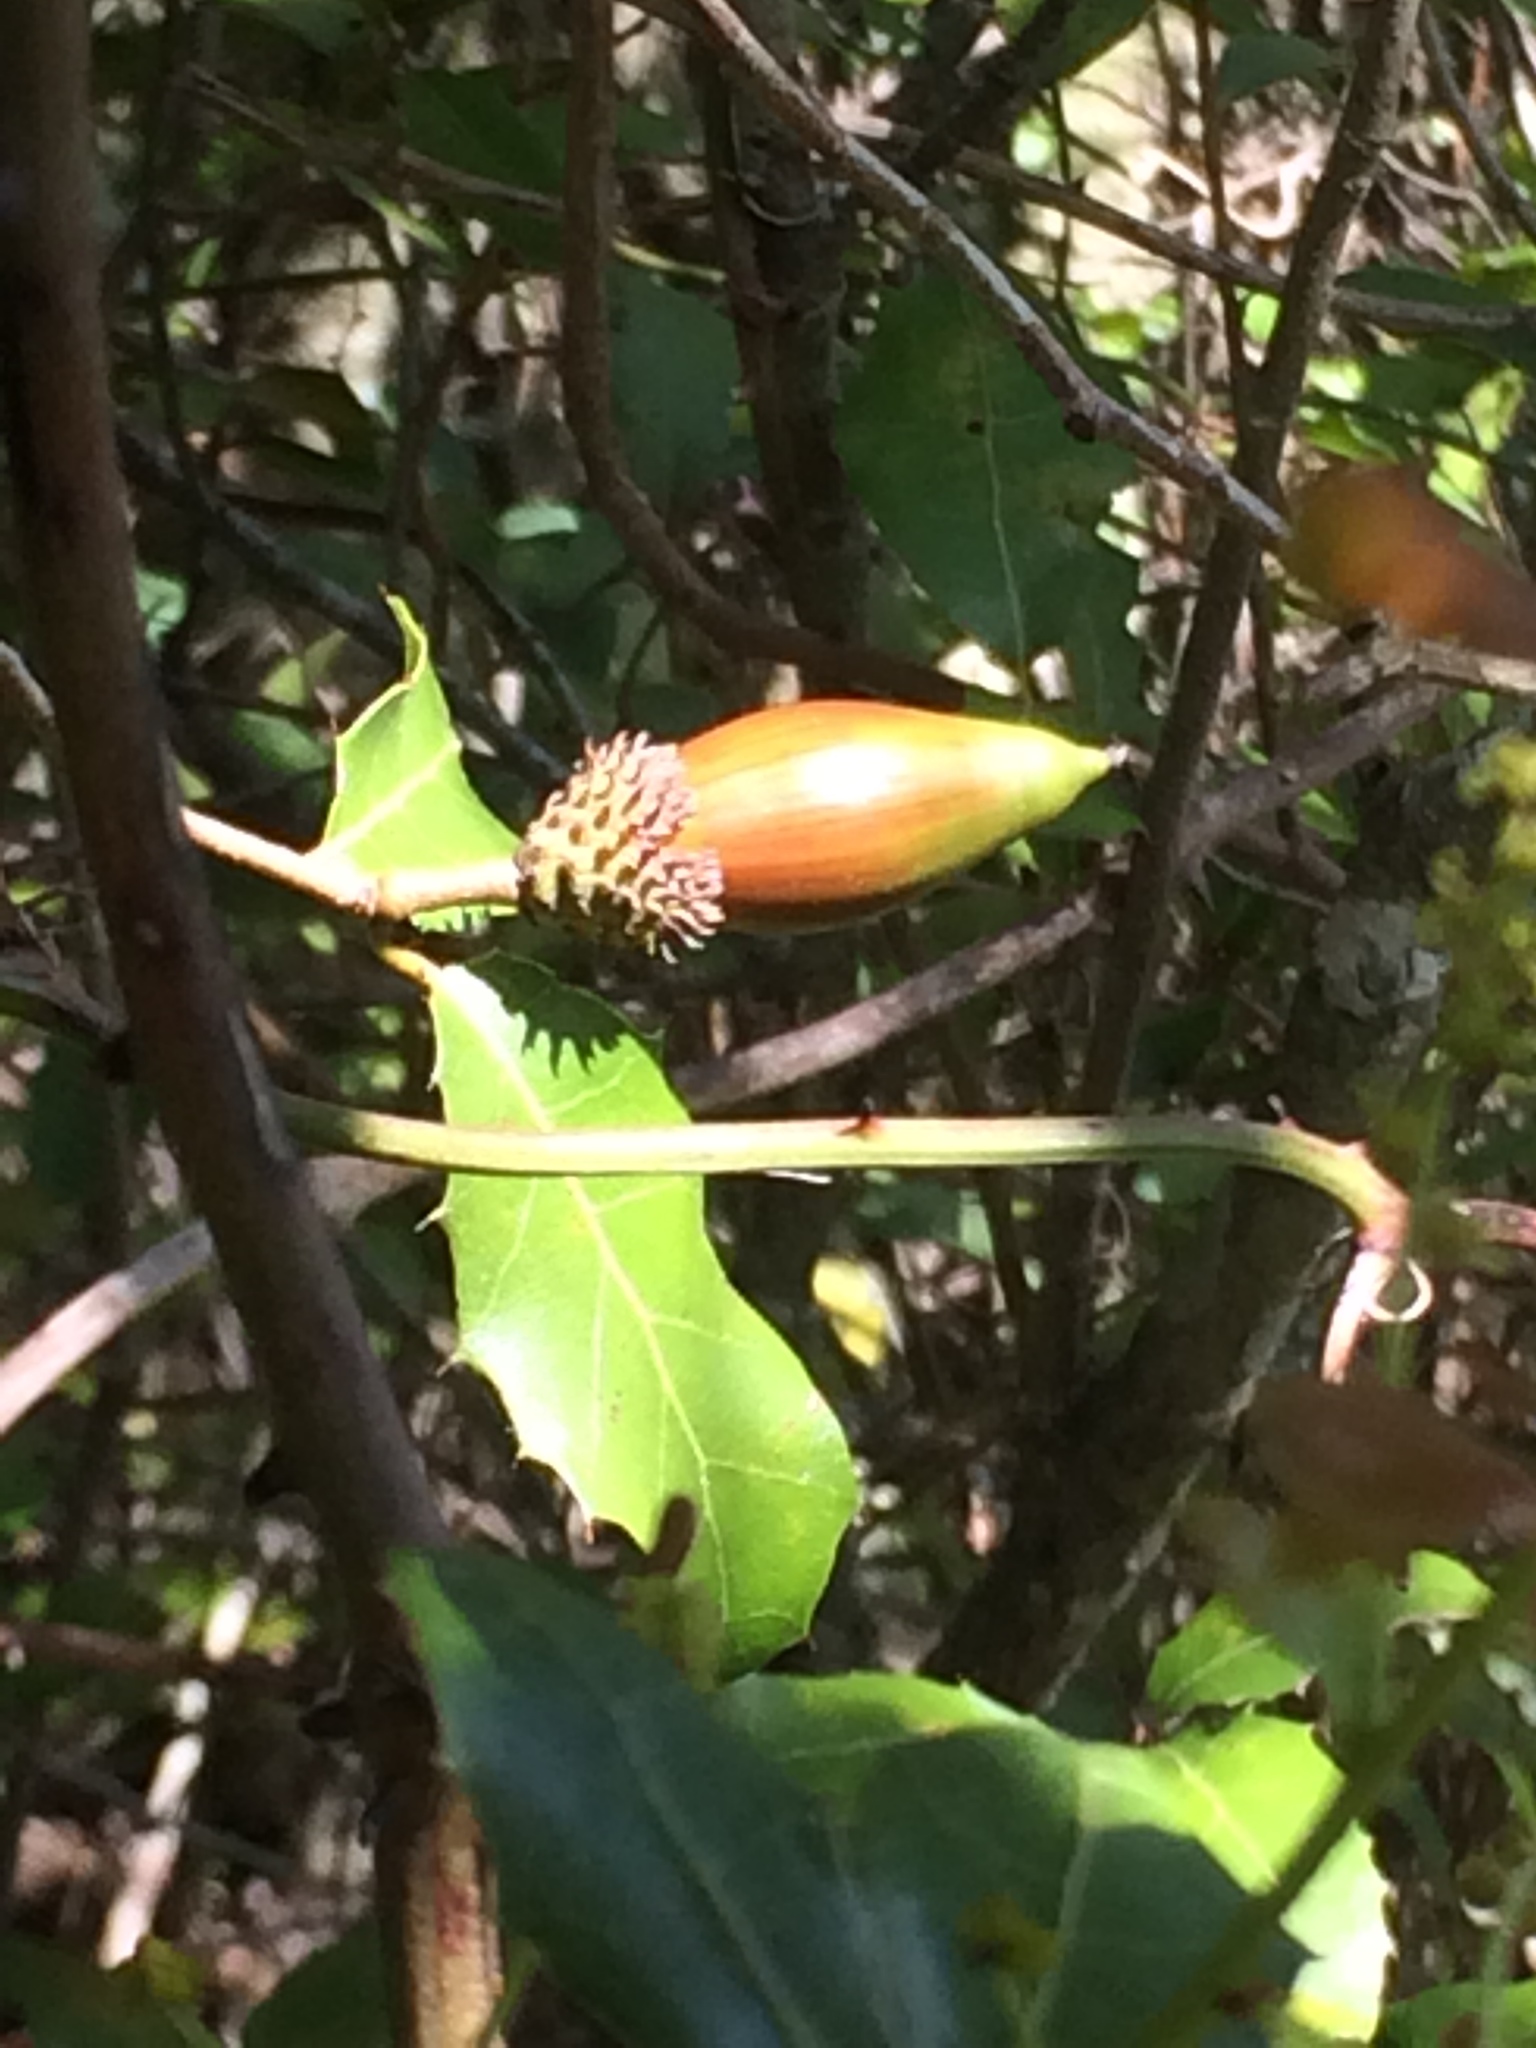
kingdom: Plantae
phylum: Tracheophyta
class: Magnoliopsida
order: Fagales
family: Fagaceae
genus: Quercus
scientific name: Quercus coccifera
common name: Kermes oak
